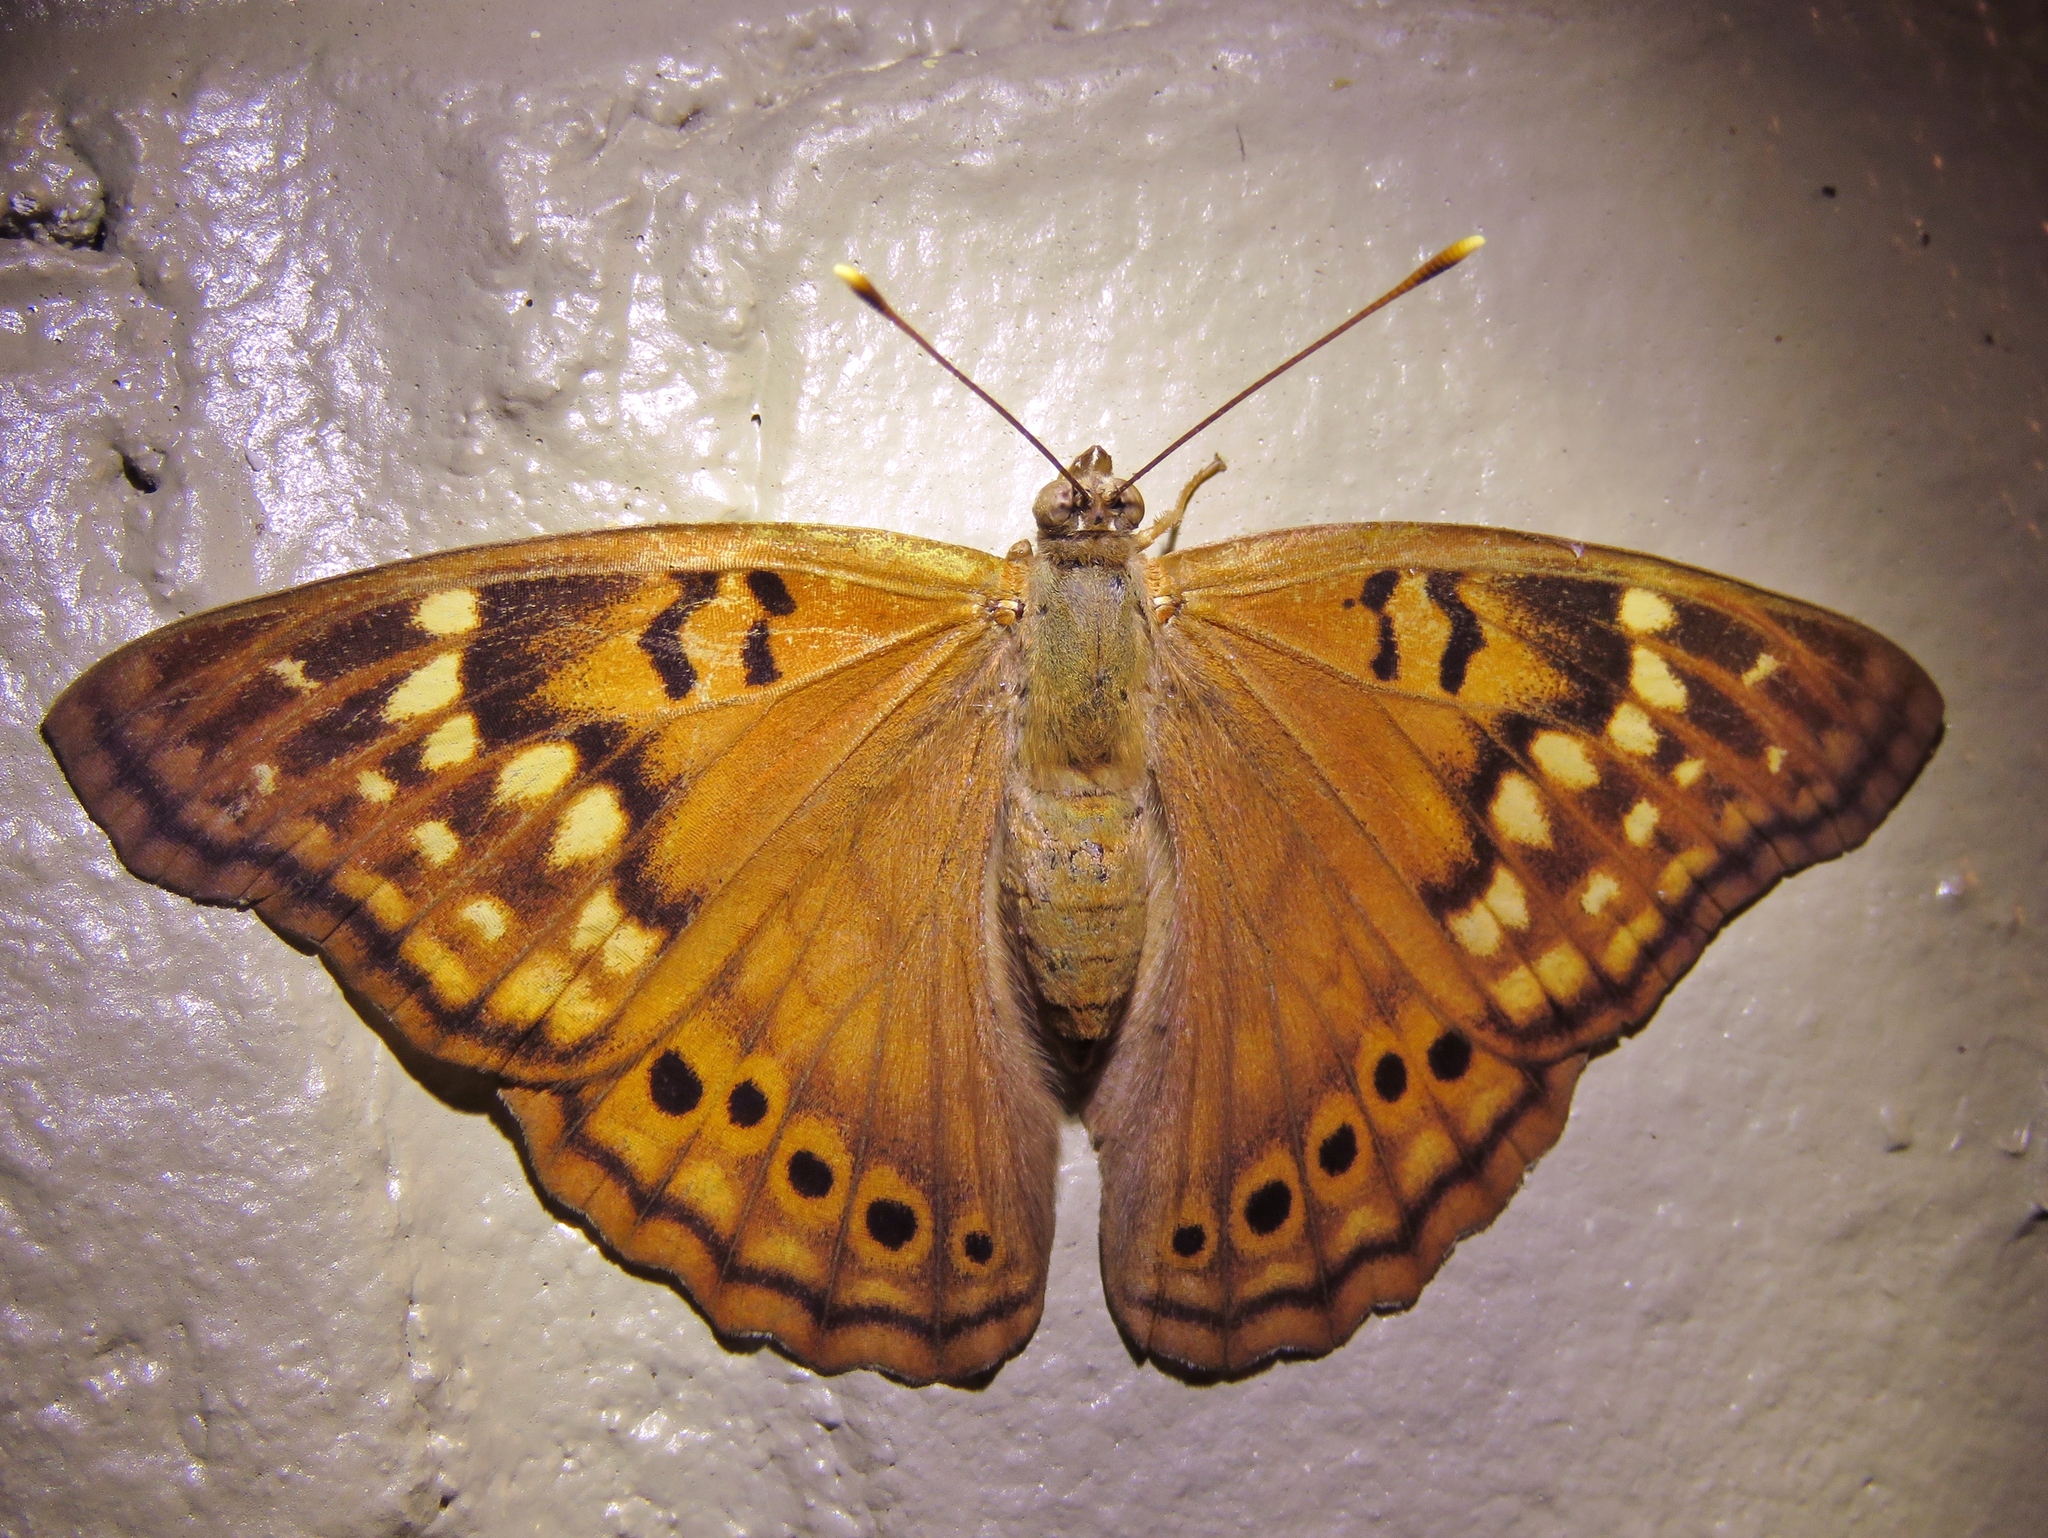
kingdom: Animalia
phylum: Arthropoda
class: Insecta
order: Lepidoptera
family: Nymphalidae
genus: Asterocampa
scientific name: Asterocampa clyton
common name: Tawny emperor
